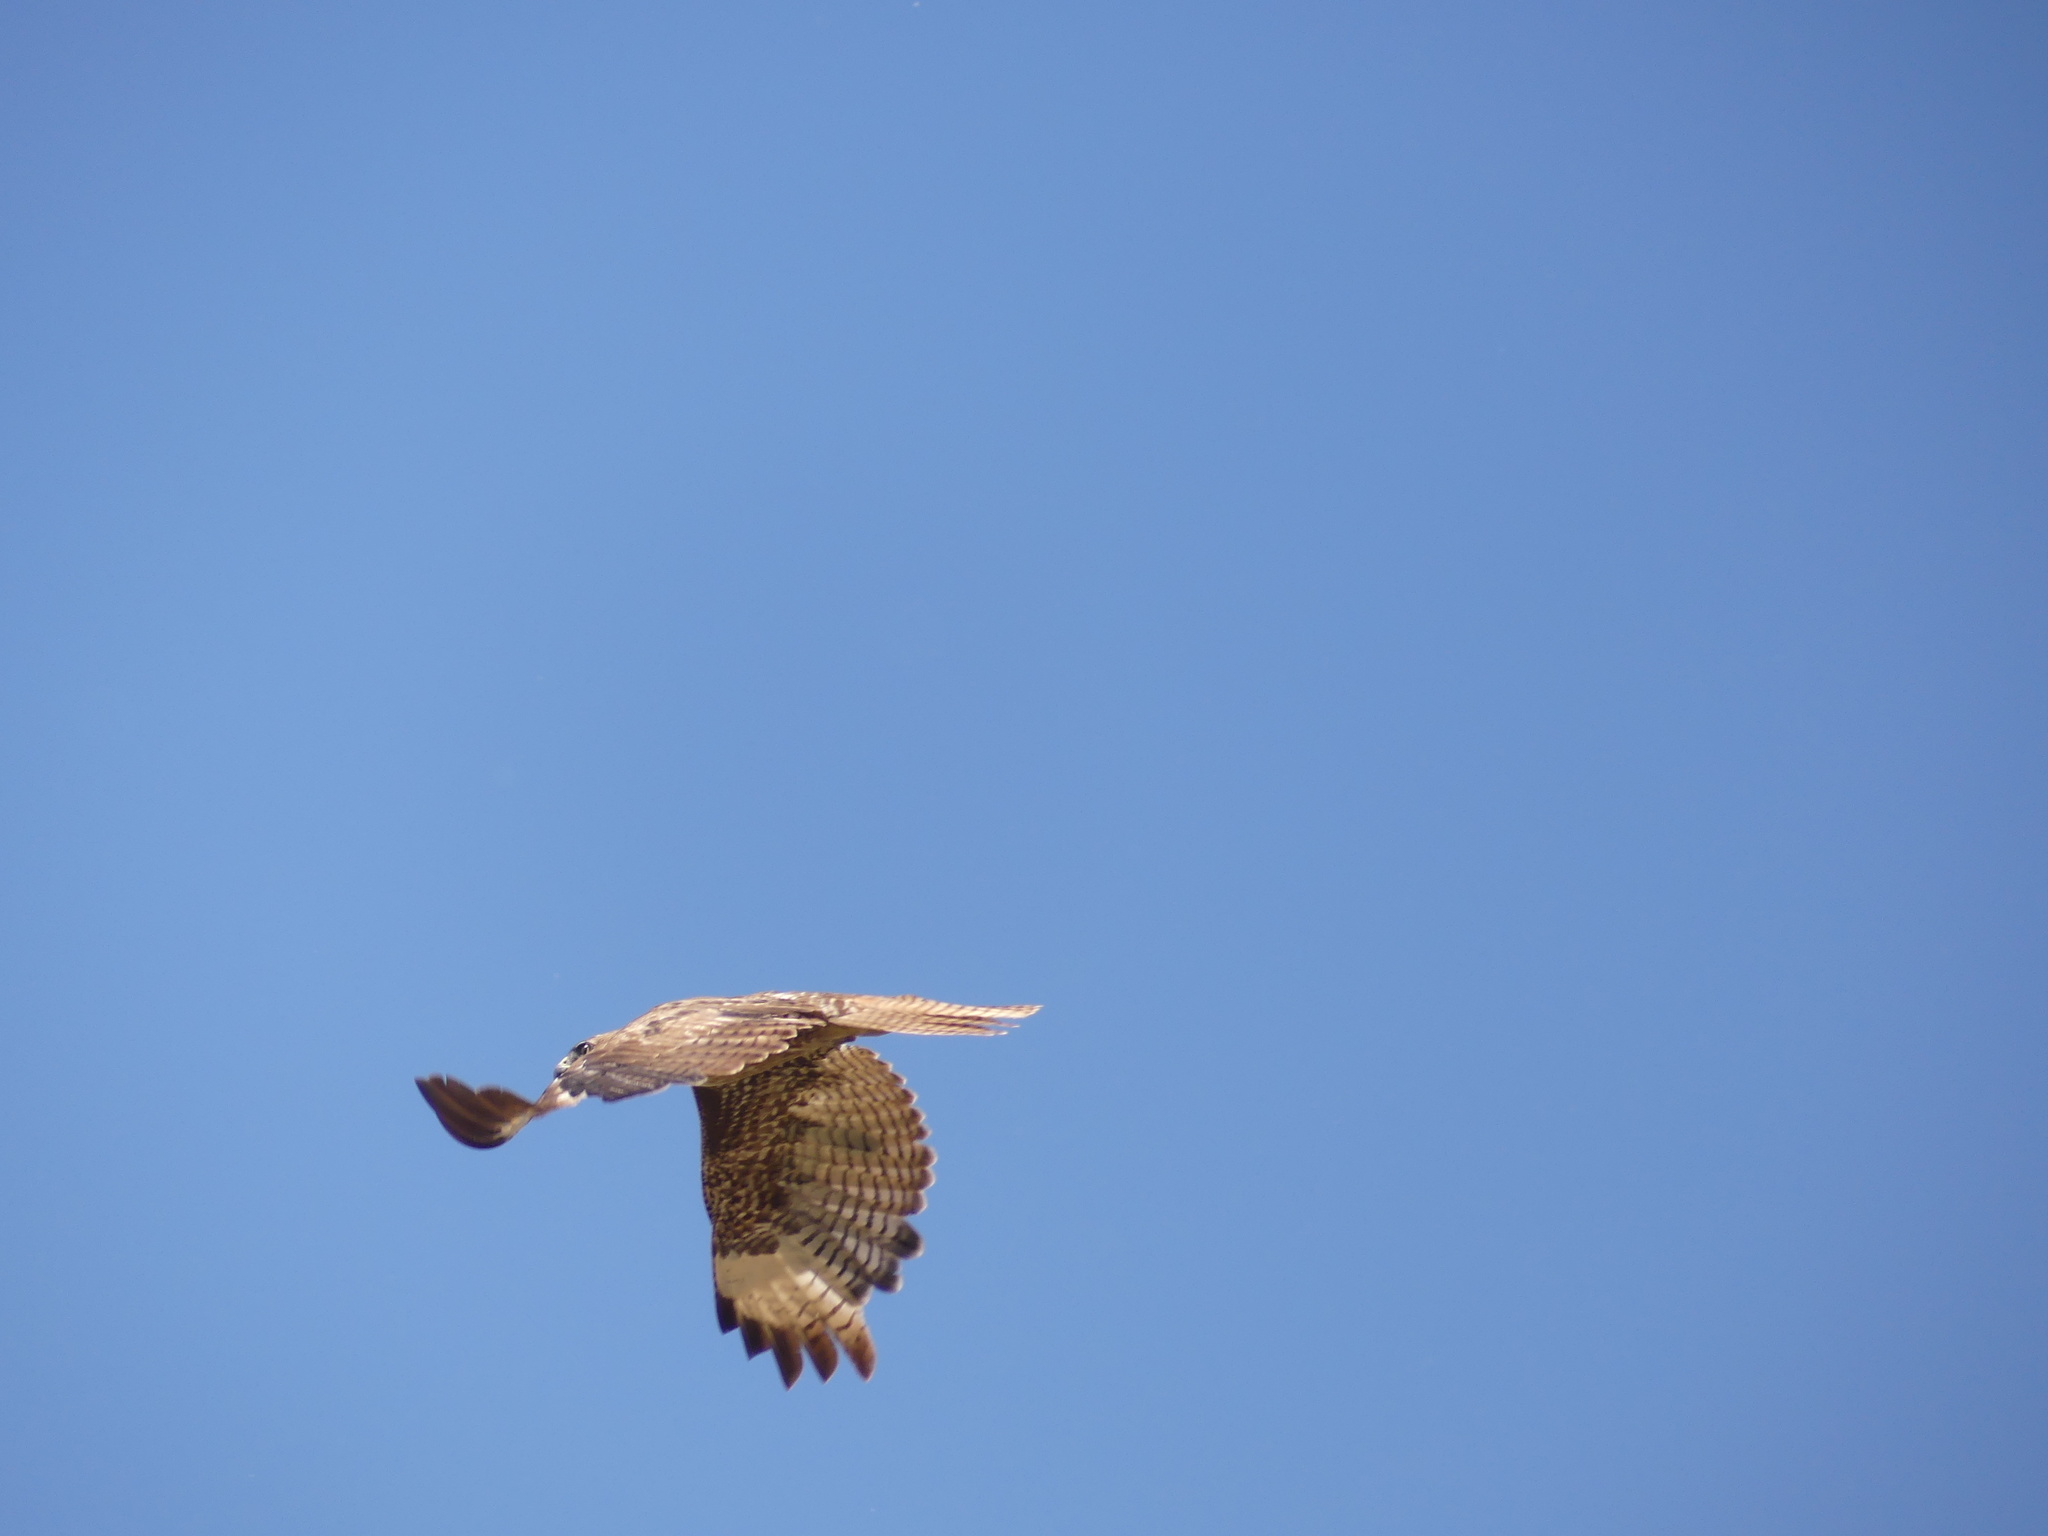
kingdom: Animalia
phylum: Chordata
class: Aves
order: Accipitriformes
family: Accipitridae
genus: Buteo
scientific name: Buteo jamaicensis
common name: Red-tailed hawk
